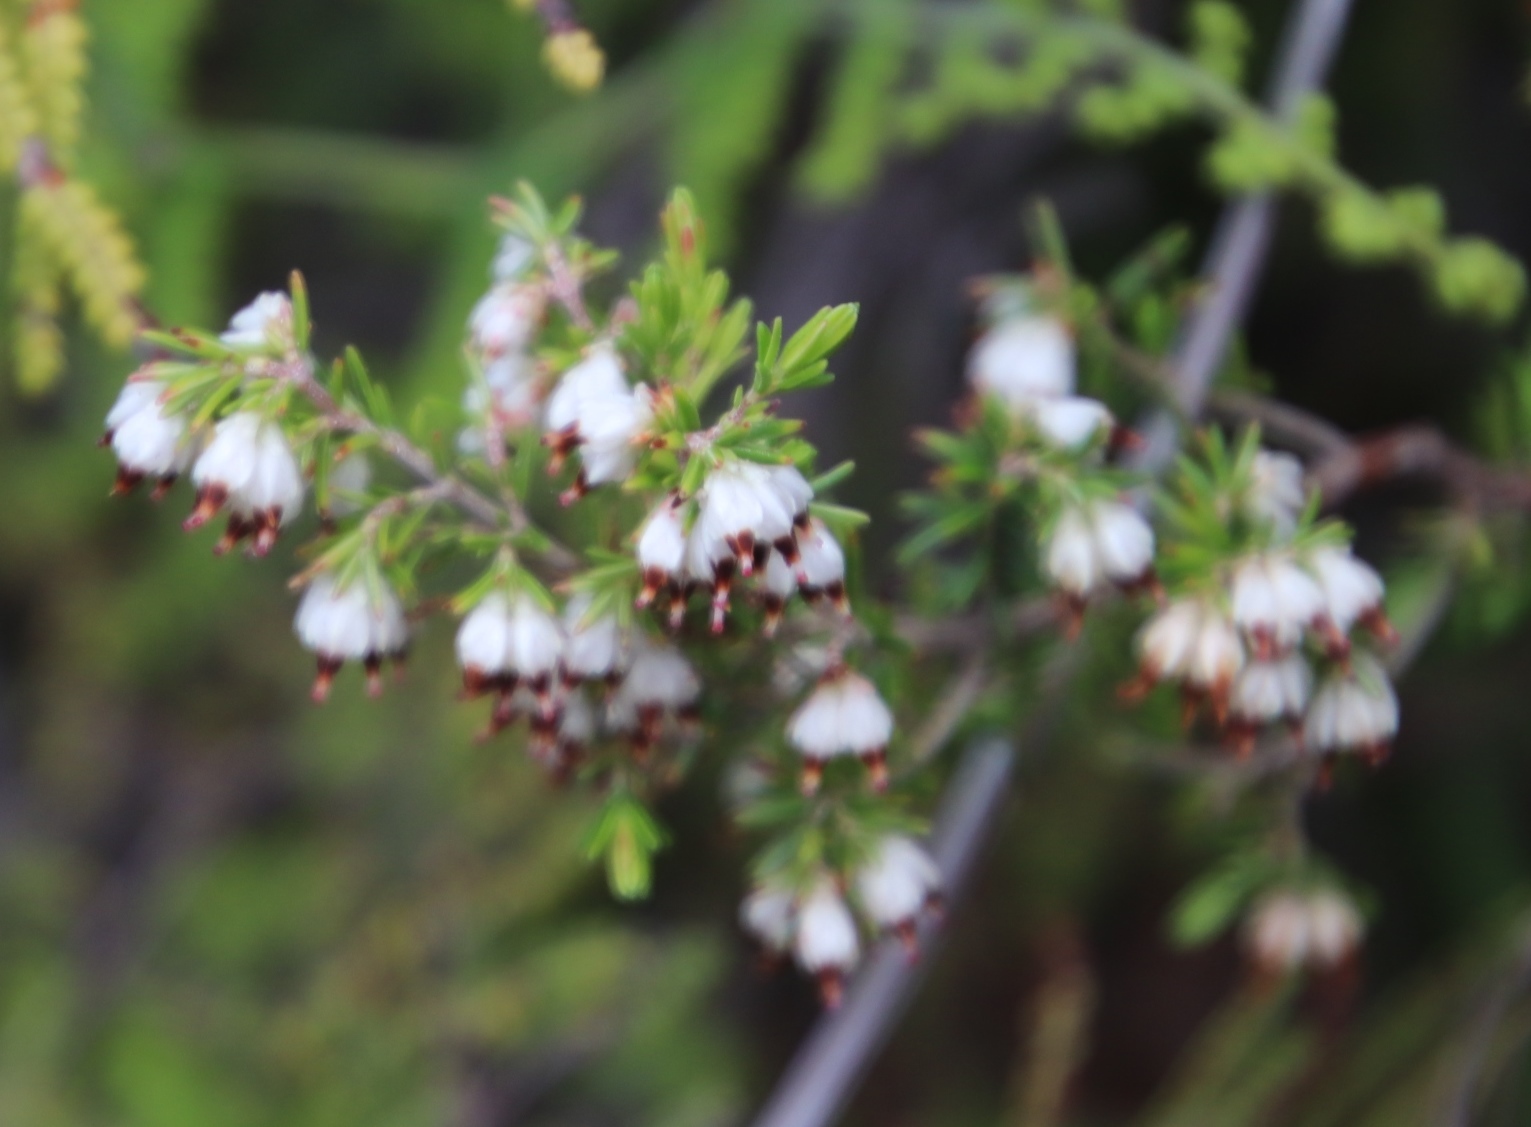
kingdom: Plantae
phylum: Tracheophyta
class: Magnoliopsida
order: Ericales
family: Ericaceae
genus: Erica
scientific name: Erica genistifolia
